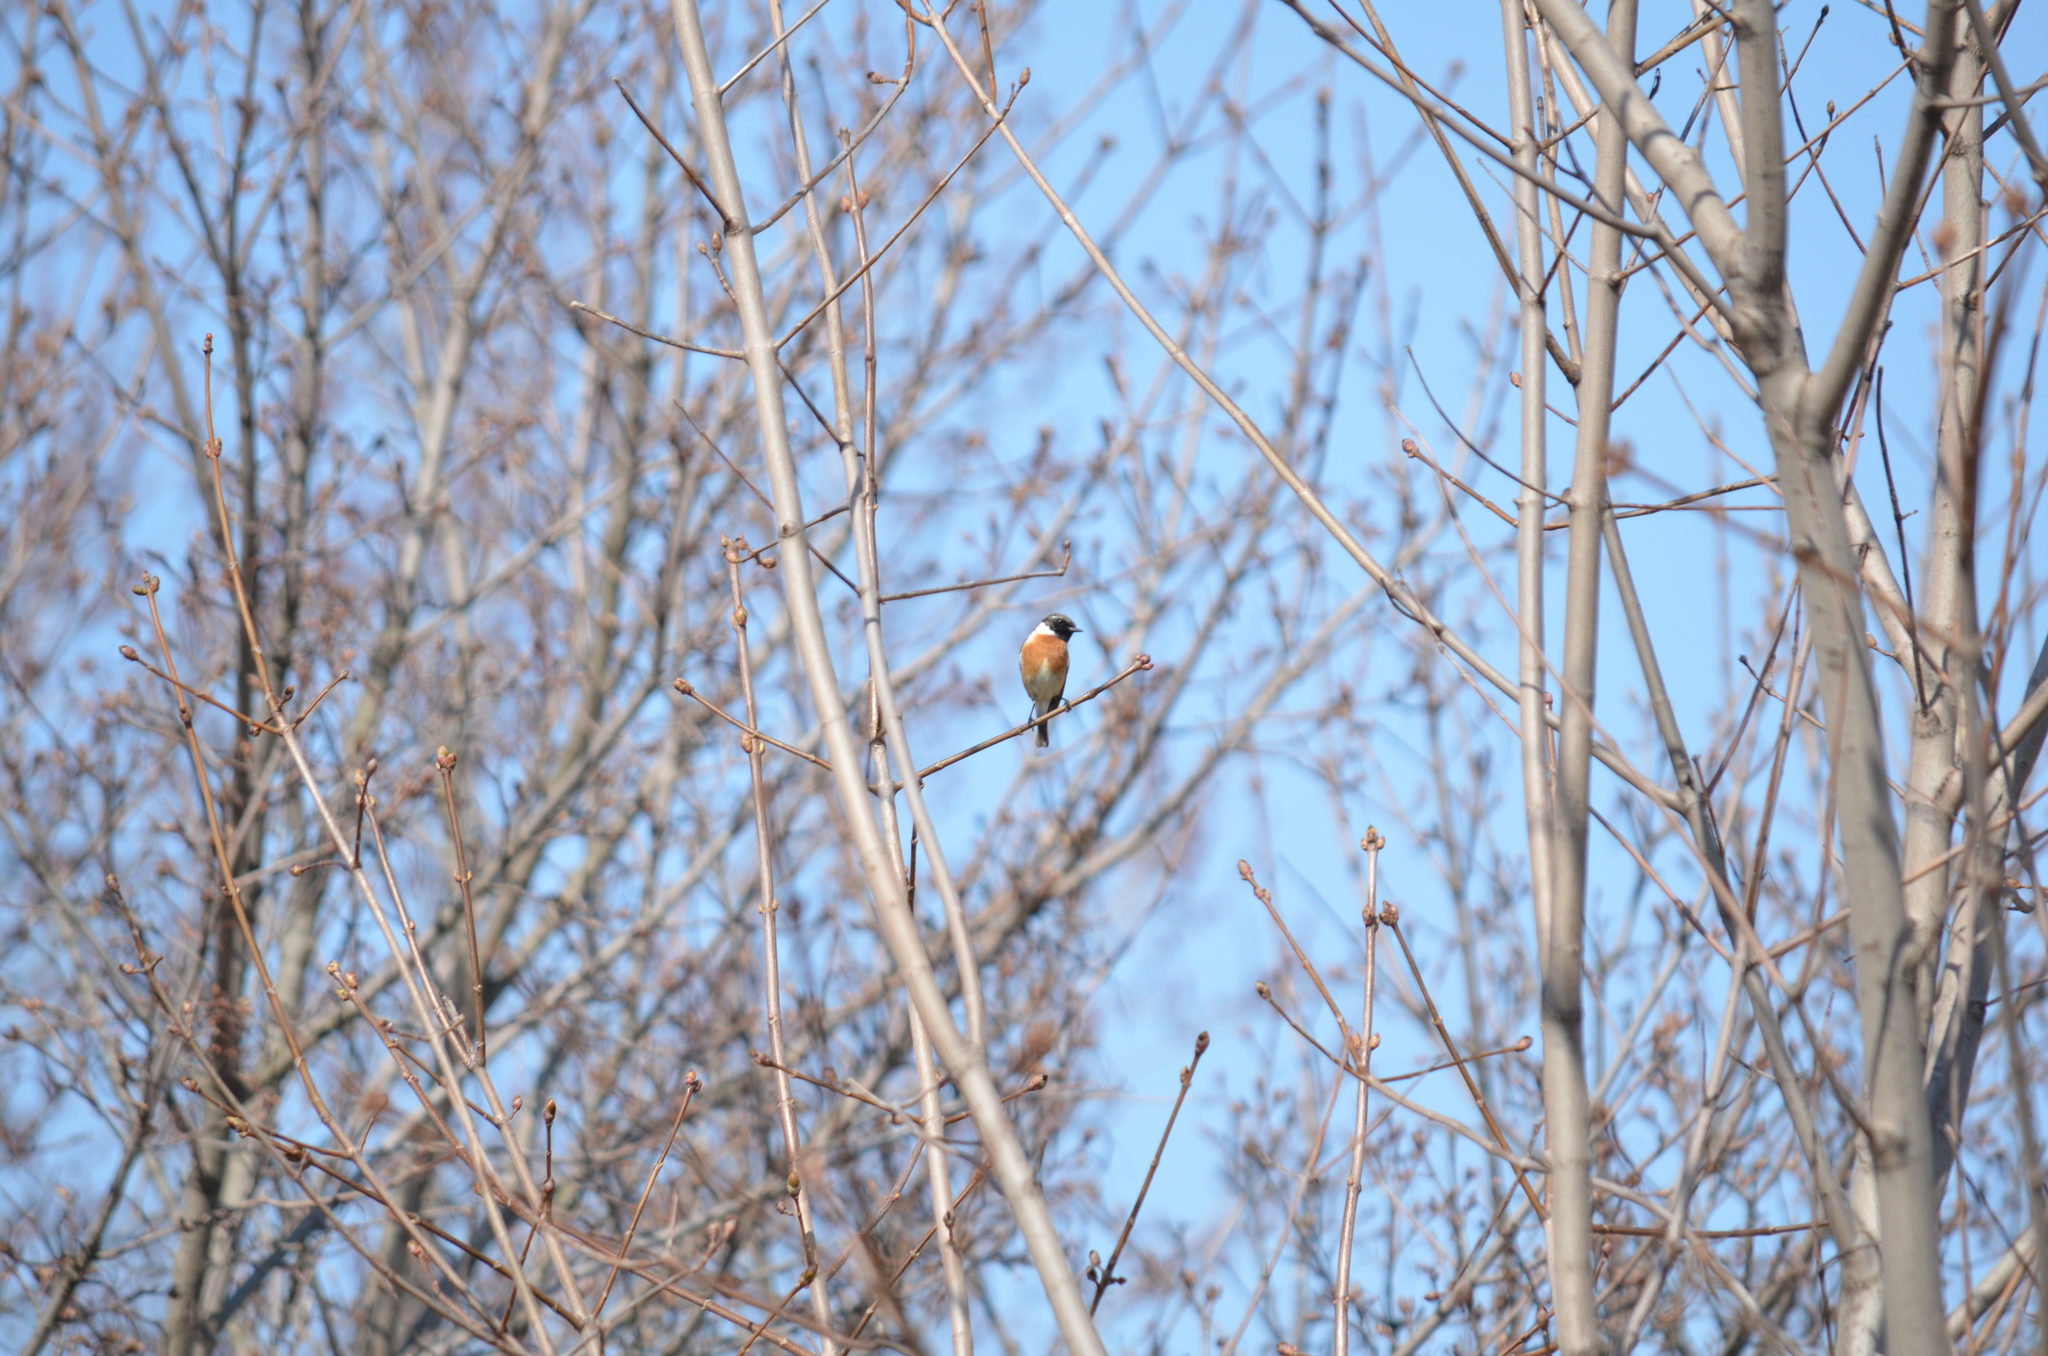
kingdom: Animalia
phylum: Chordata
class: Aves
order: Passeriformes
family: Muscicapidae
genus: Saxicola
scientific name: Saxicola rubicola
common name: European stonechat
